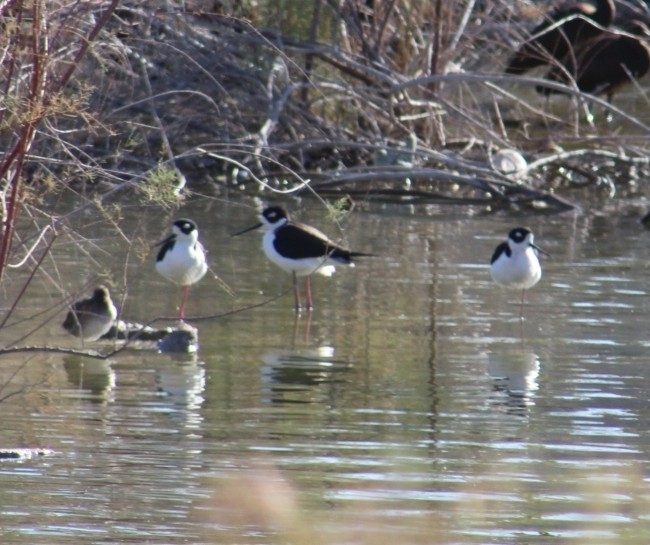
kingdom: Animalia
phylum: Chordata
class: Aves
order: Charadriiformes
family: Recurvirostridae
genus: Himantopus
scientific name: Himantopus mexicanus
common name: Black-necked stilt
